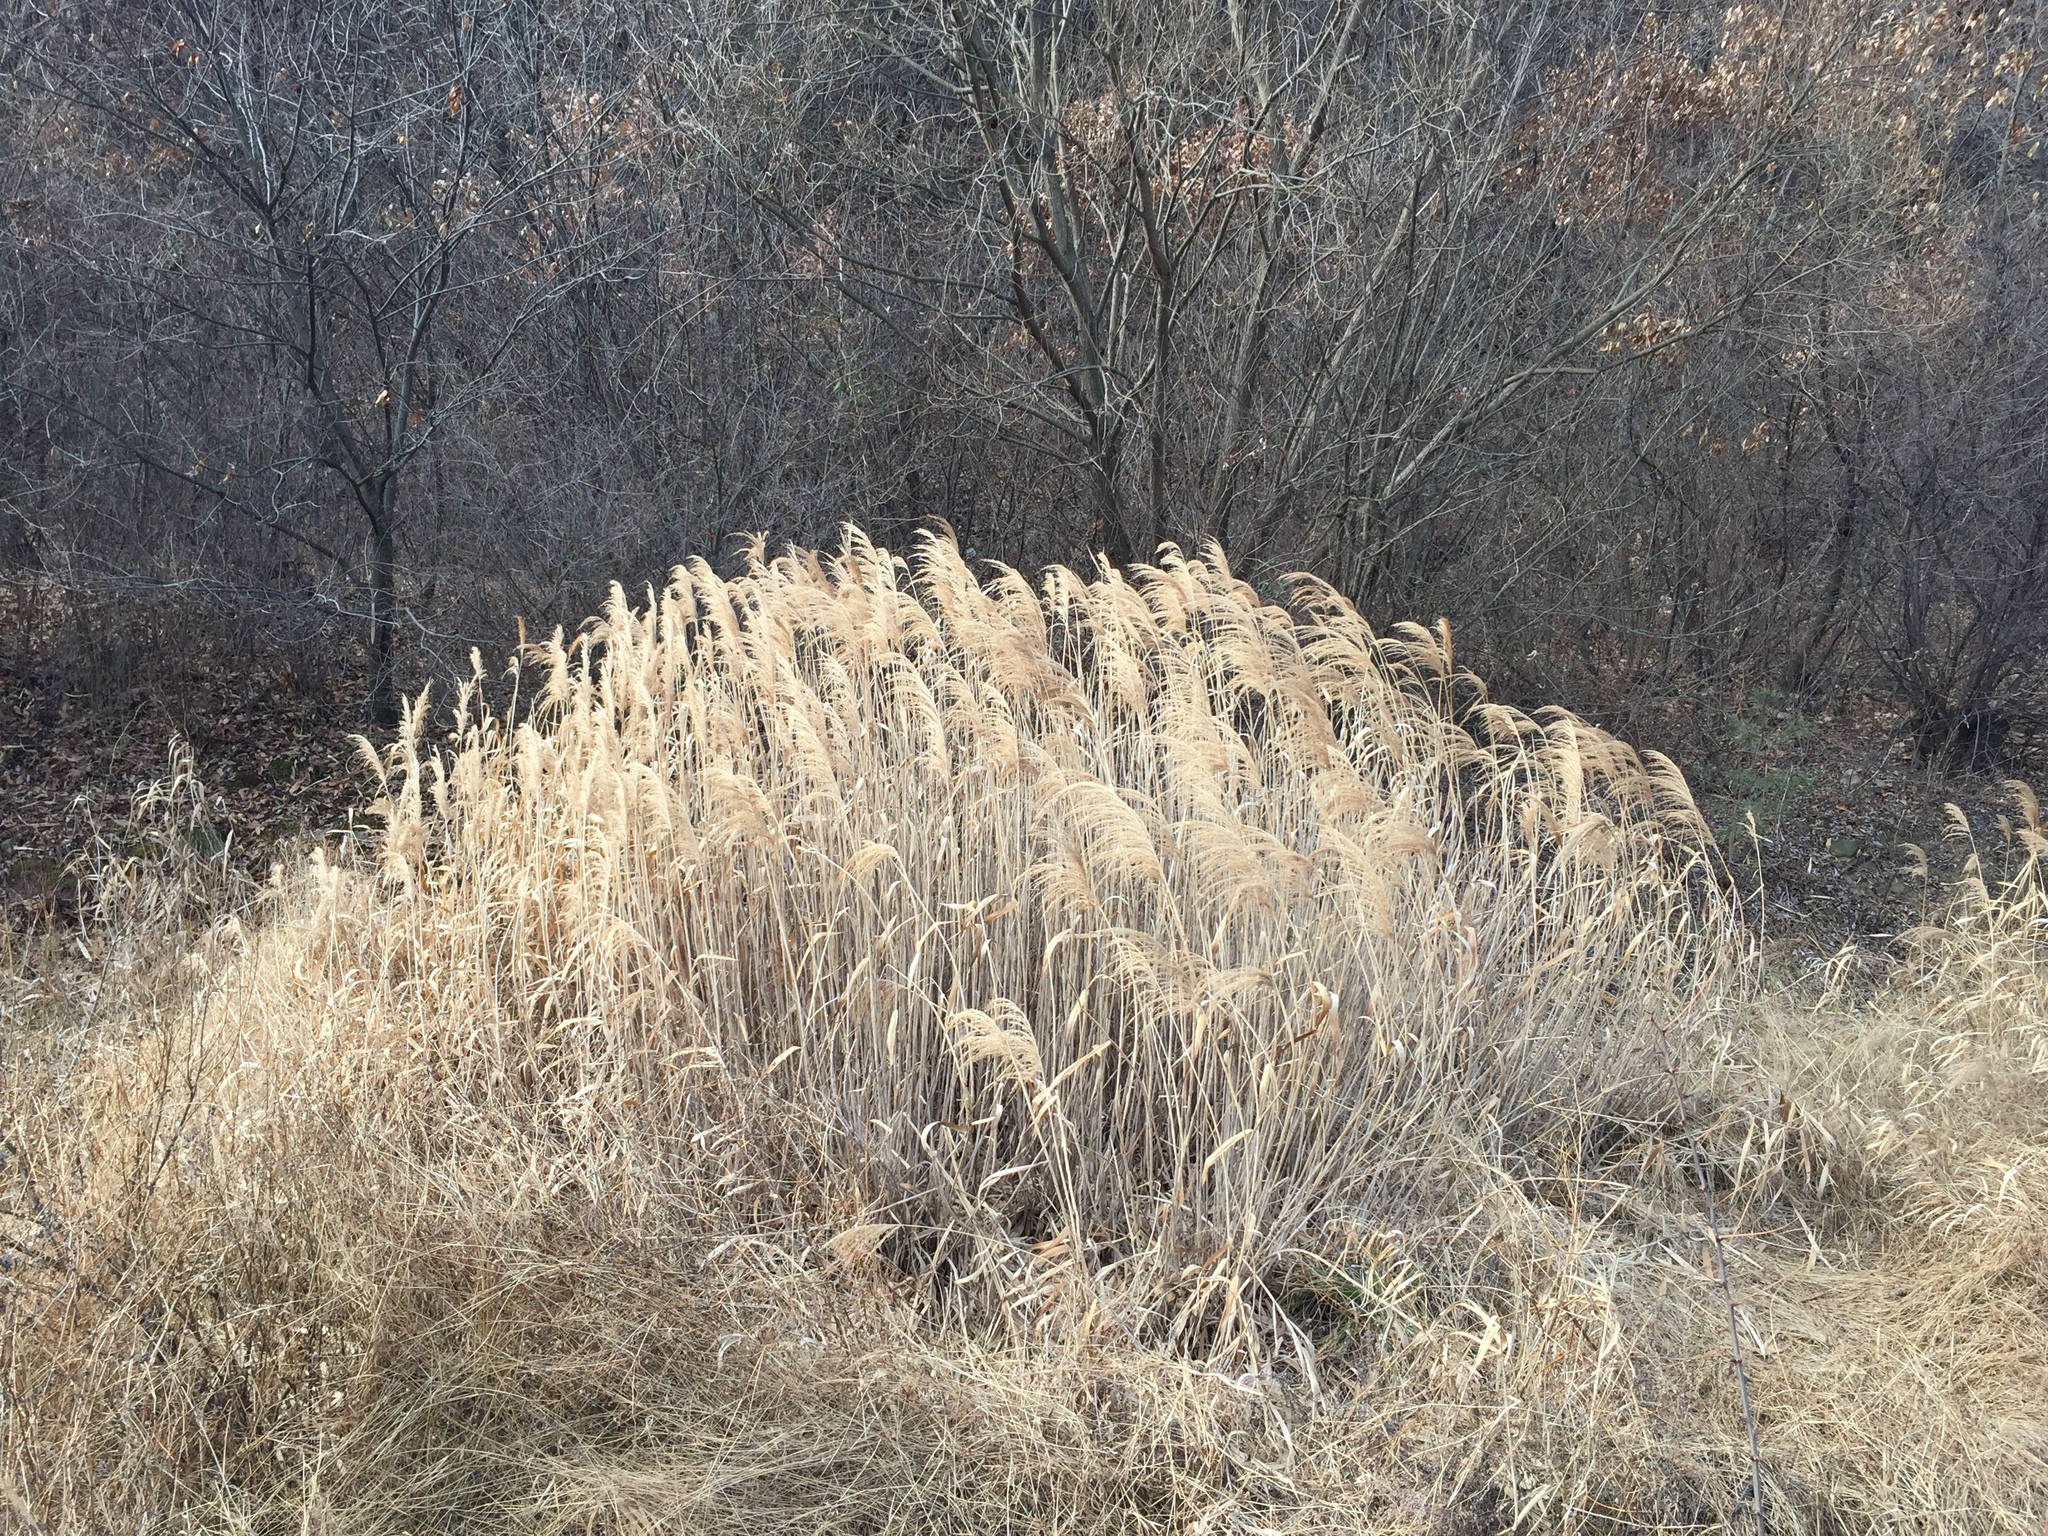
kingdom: Plantae
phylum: Tracheophyta
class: Liliopsida
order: Poales
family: Poaceae
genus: Phragmites
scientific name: Phragmites australis
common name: Common reed
